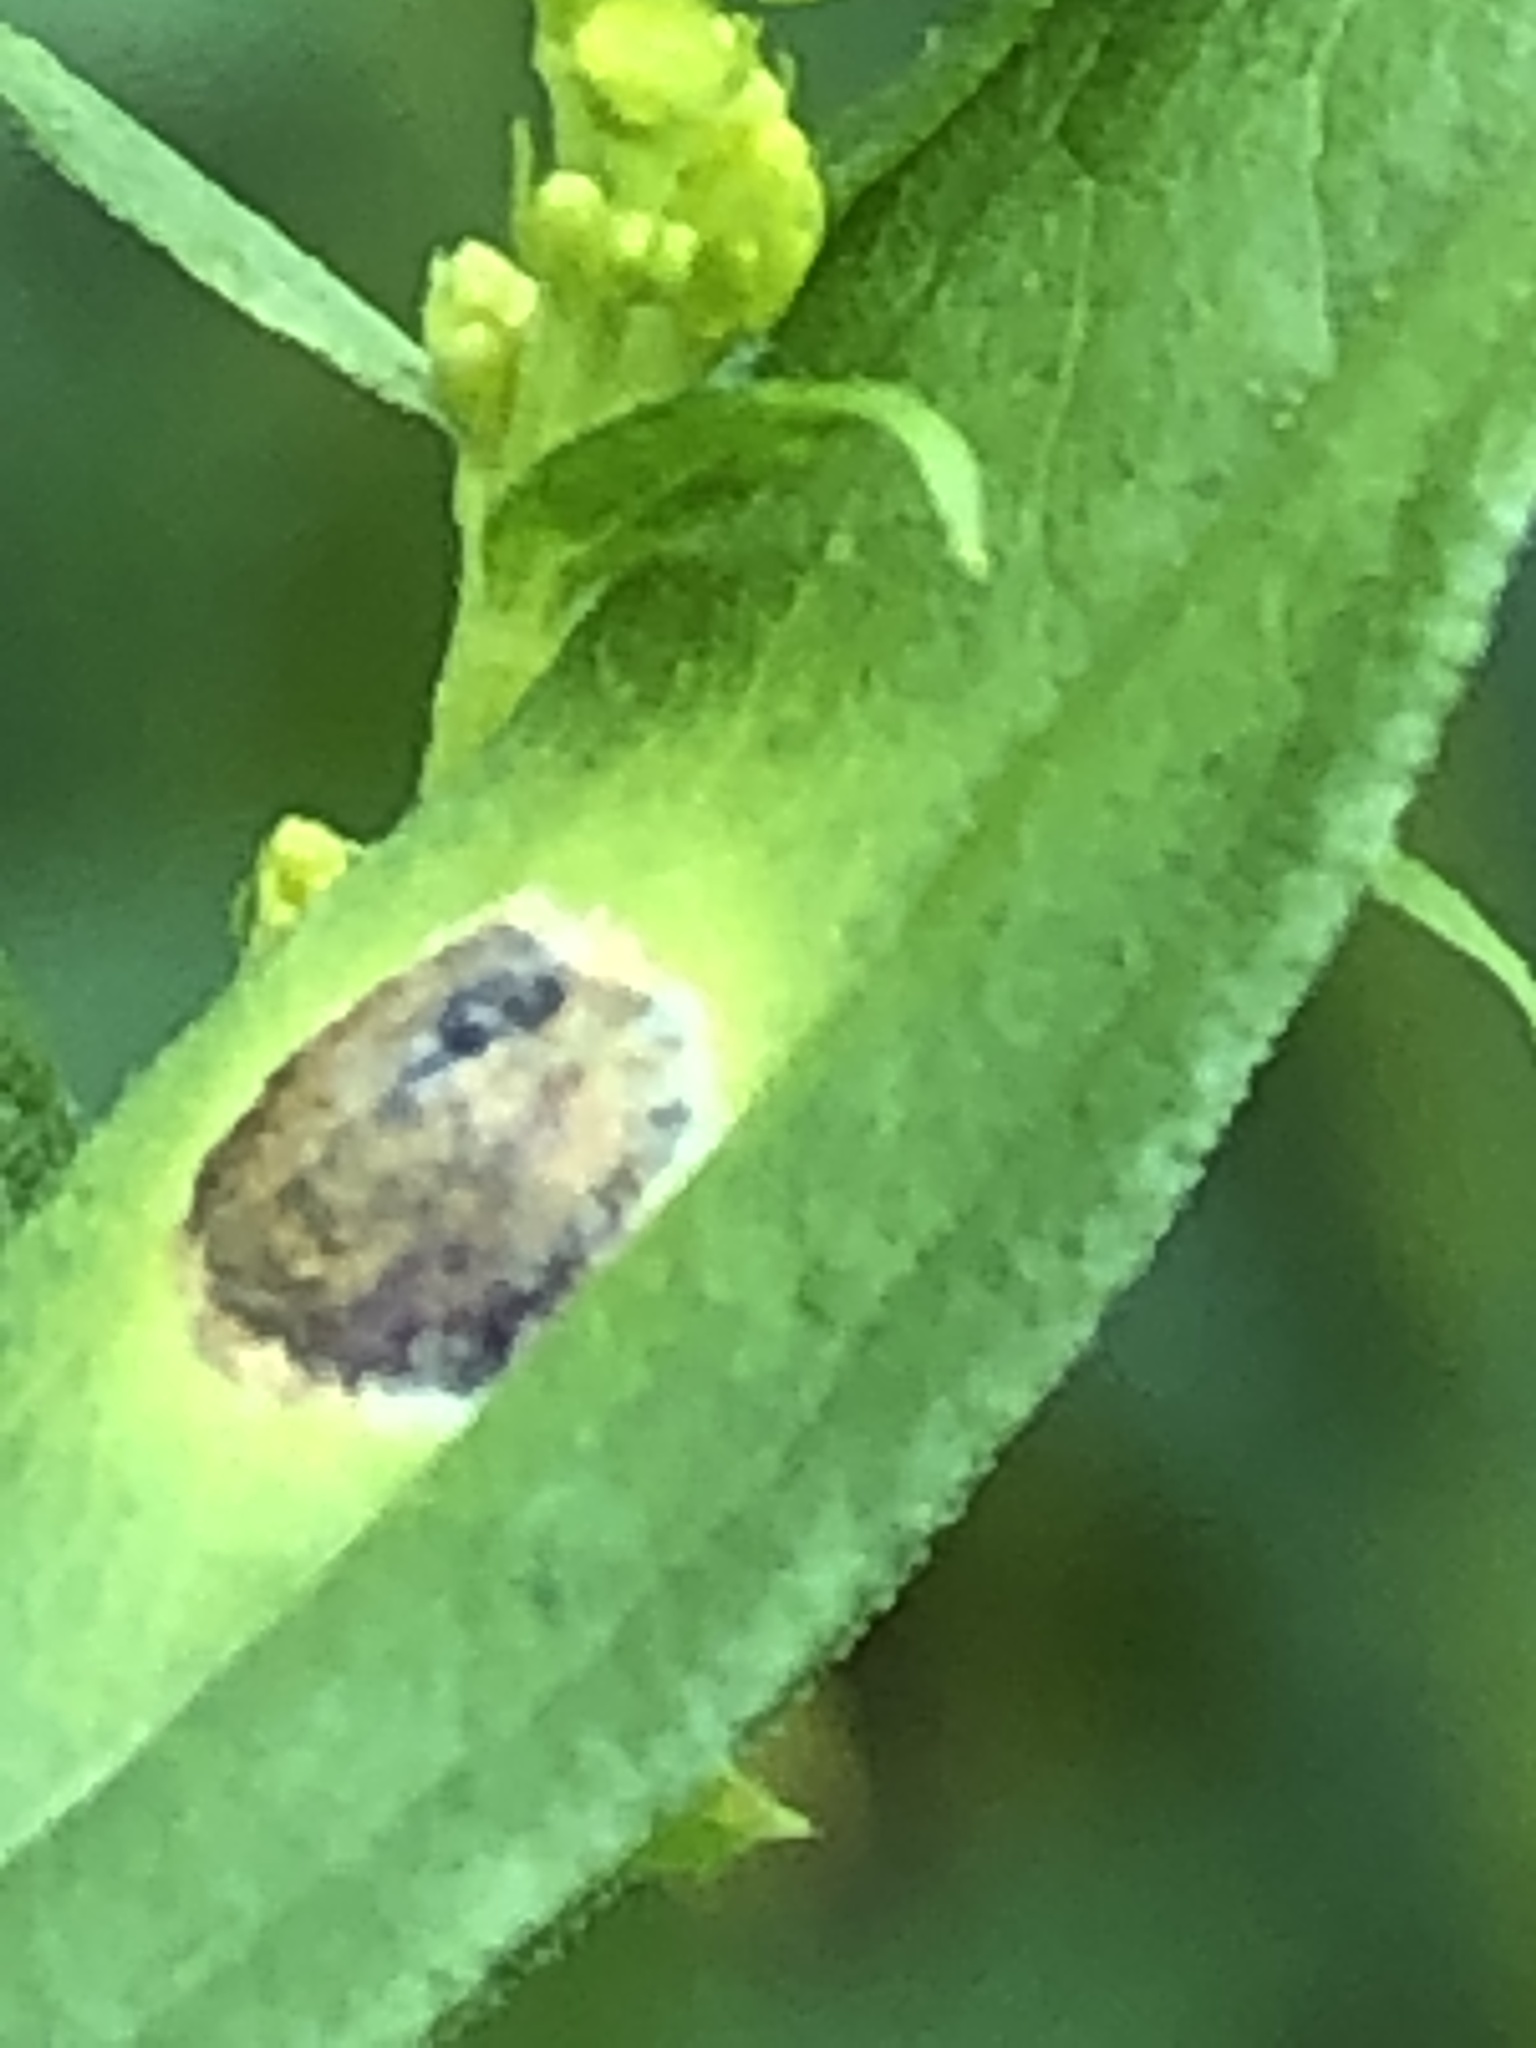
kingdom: Animalia
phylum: Arthropoda
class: Insecta
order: Diptera
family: Cecidomyiidae
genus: Asteromyia
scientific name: Asteromyia carbonifera
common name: Carbonifera goldenrod gall midge
